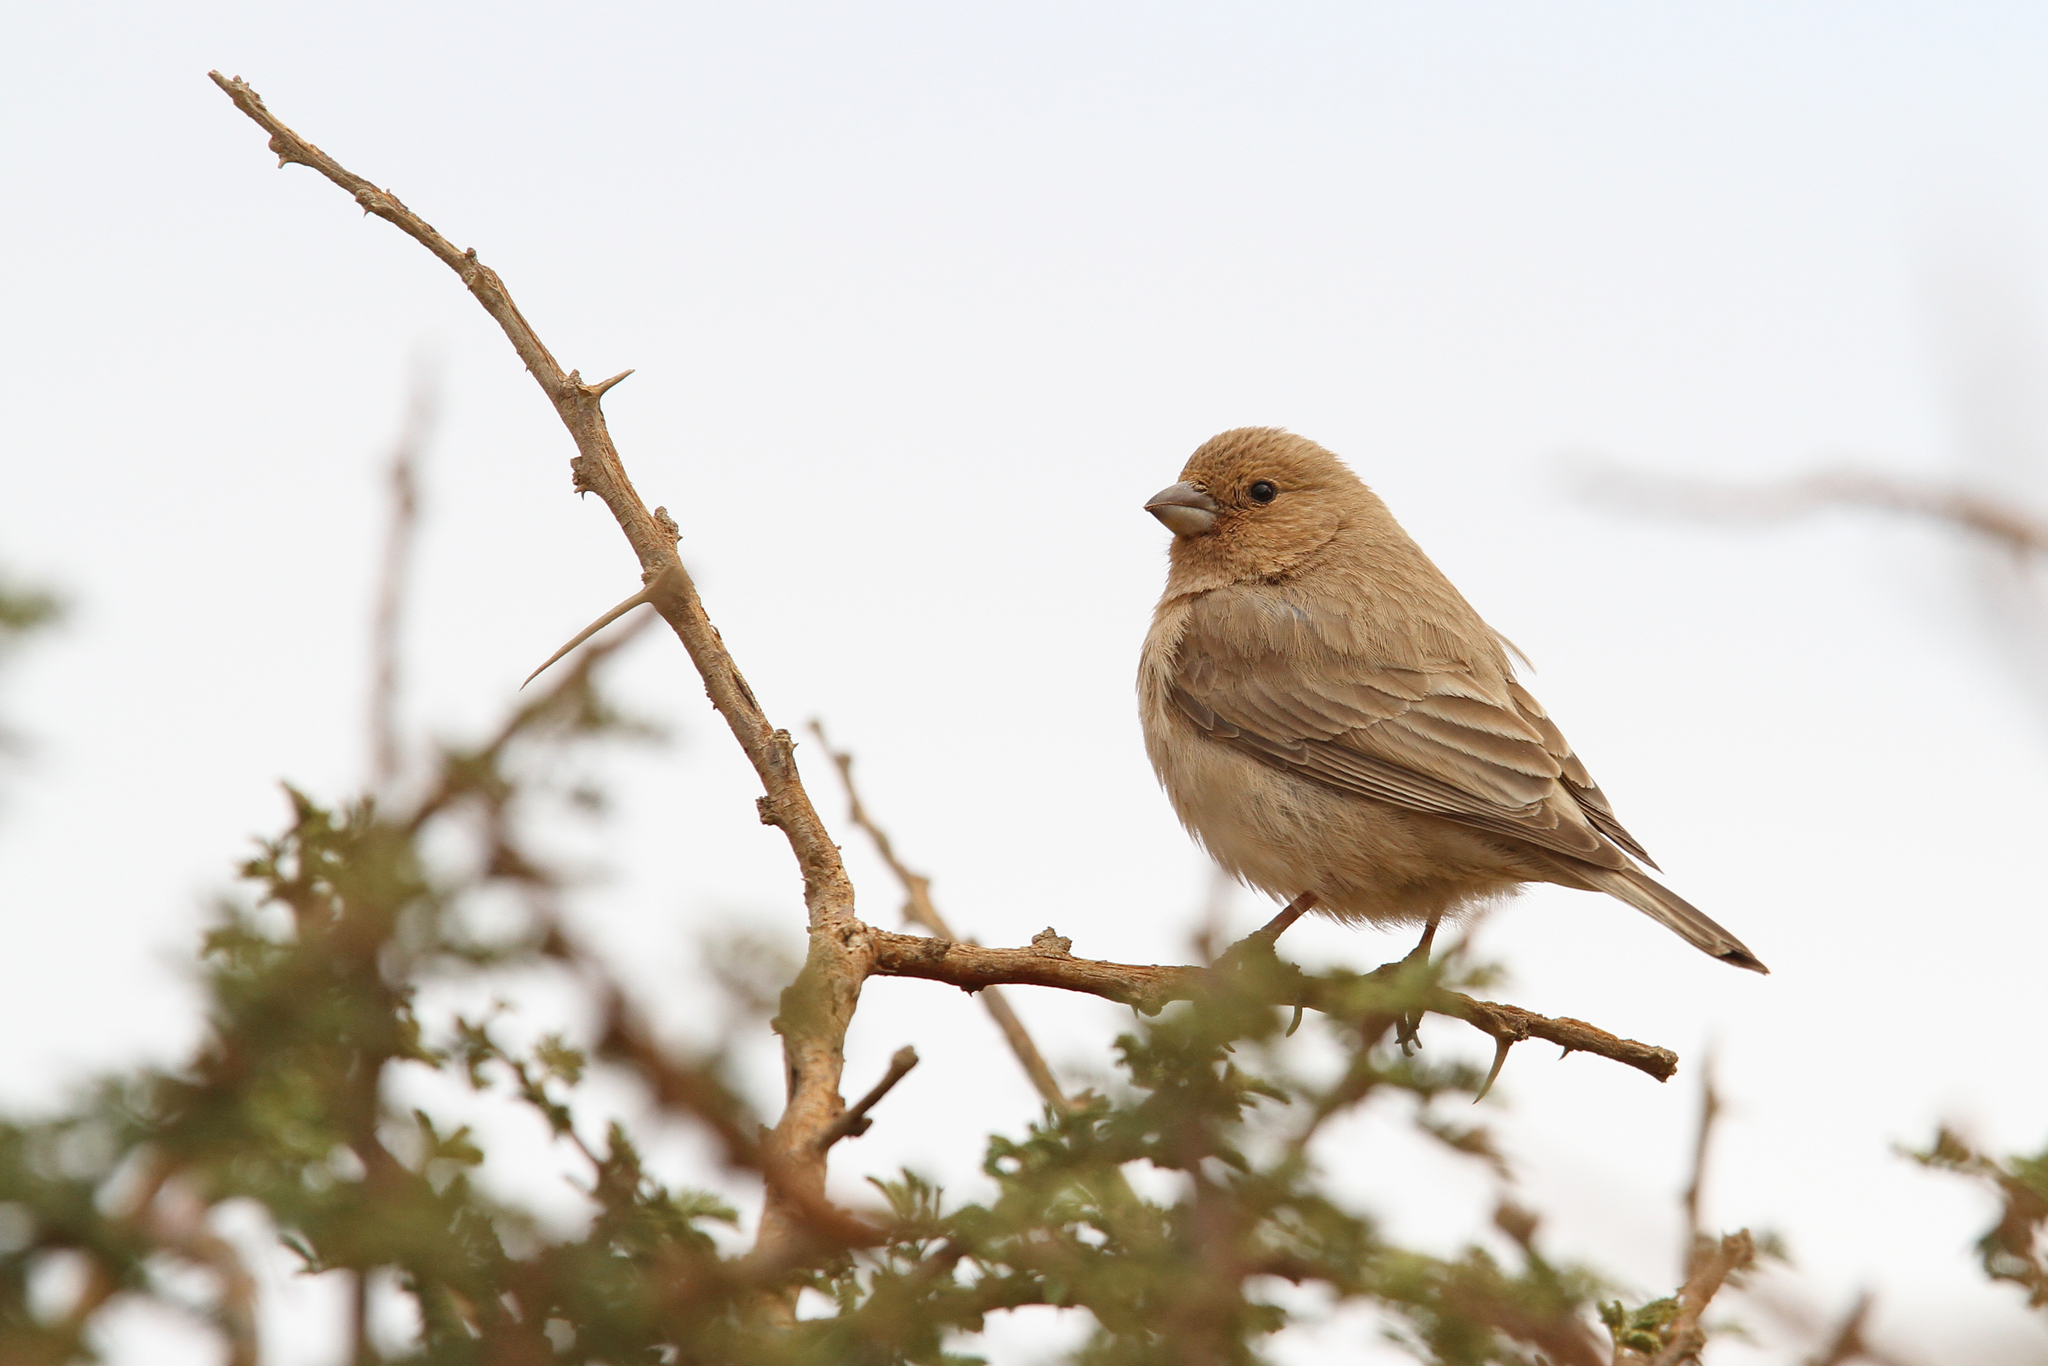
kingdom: Animalia
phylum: Chordata
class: Aves
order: Passeriformes
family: Fringillidae
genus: Carpodacus
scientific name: Carpodacus synoicus
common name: Sinai rosefinch
